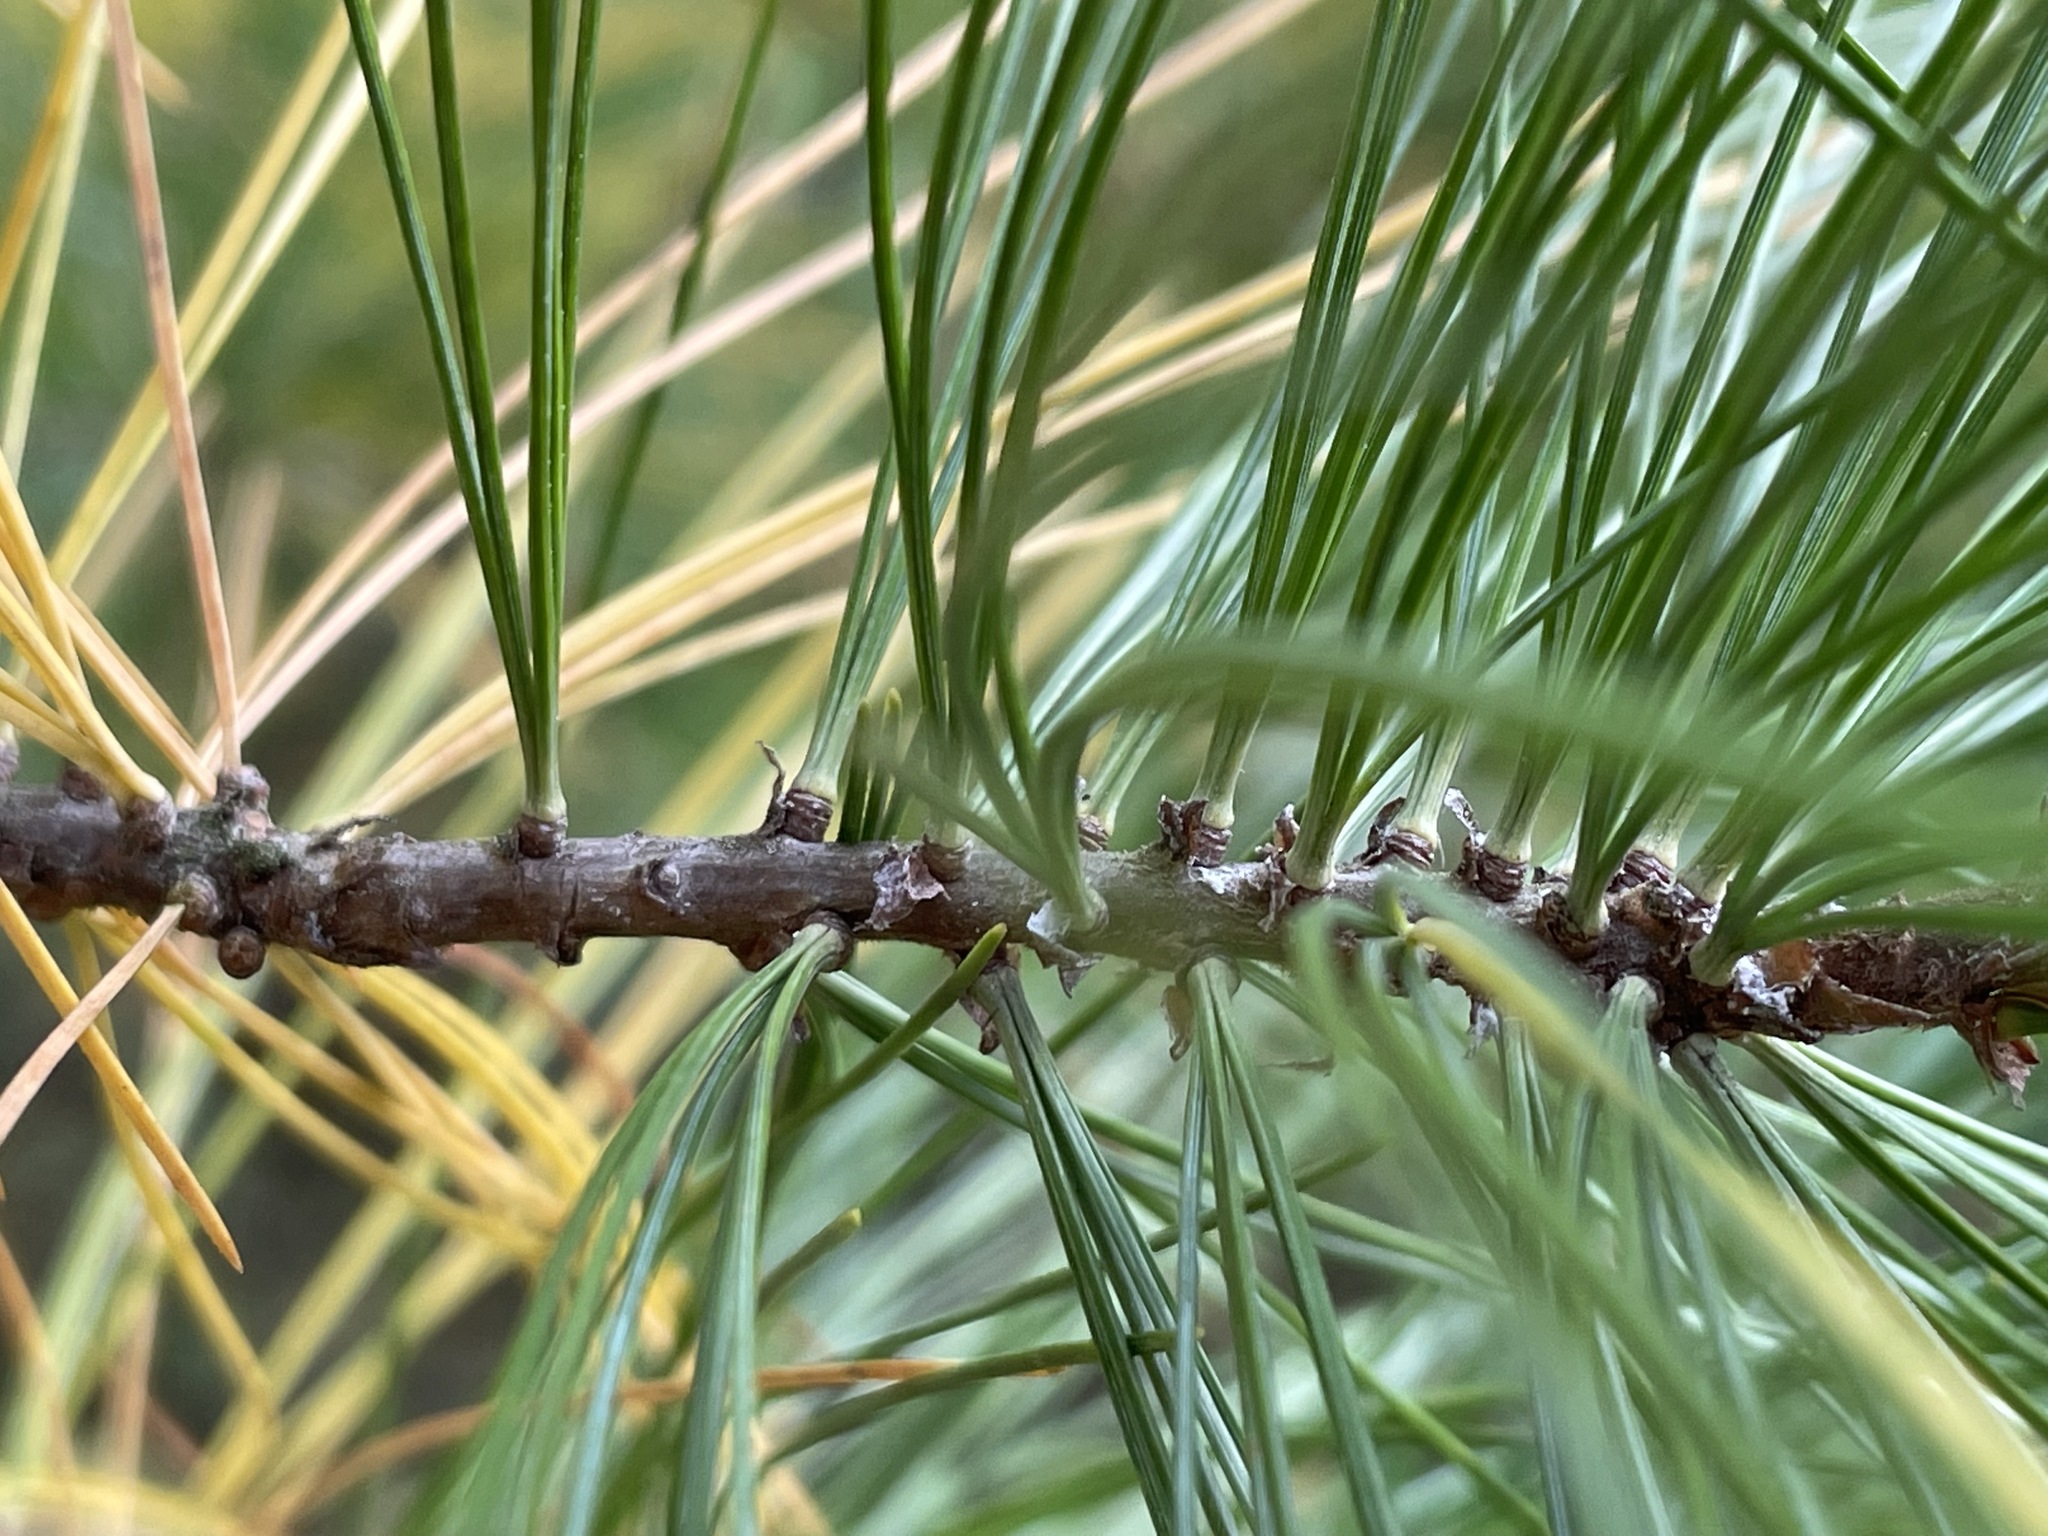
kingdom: Plantae
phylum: Tracheophyta
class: Pinopsida
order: Pinales
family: Pinaceae
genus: Pinus
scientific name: Pinus strobus
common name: Weymouth pine
